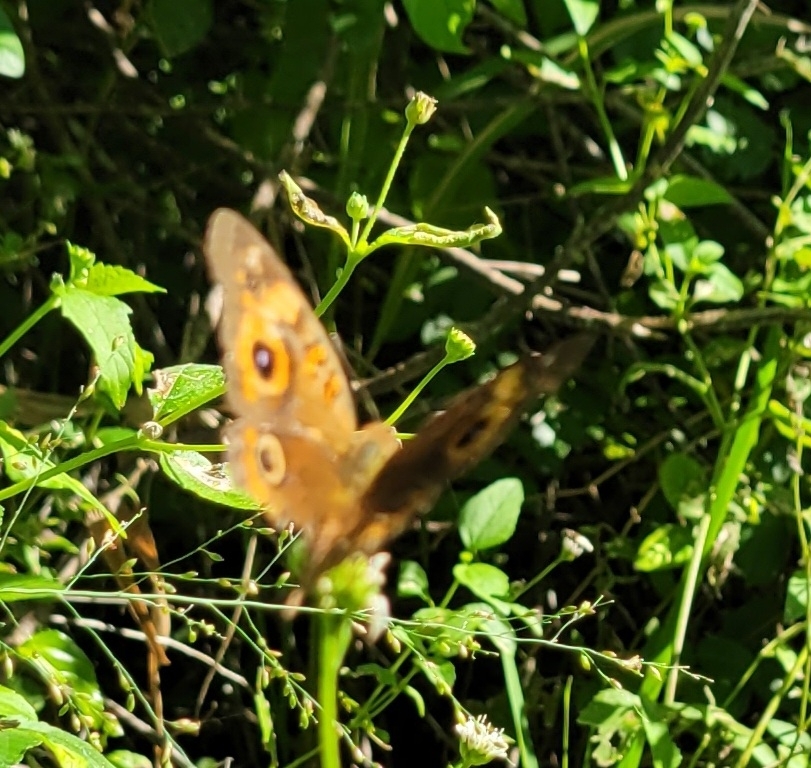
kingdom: Animalia
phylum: Arthropoda
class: Insecta
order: Lepidoptera
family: Nymphalidae
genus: Junonia
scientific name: Junonia neildi
